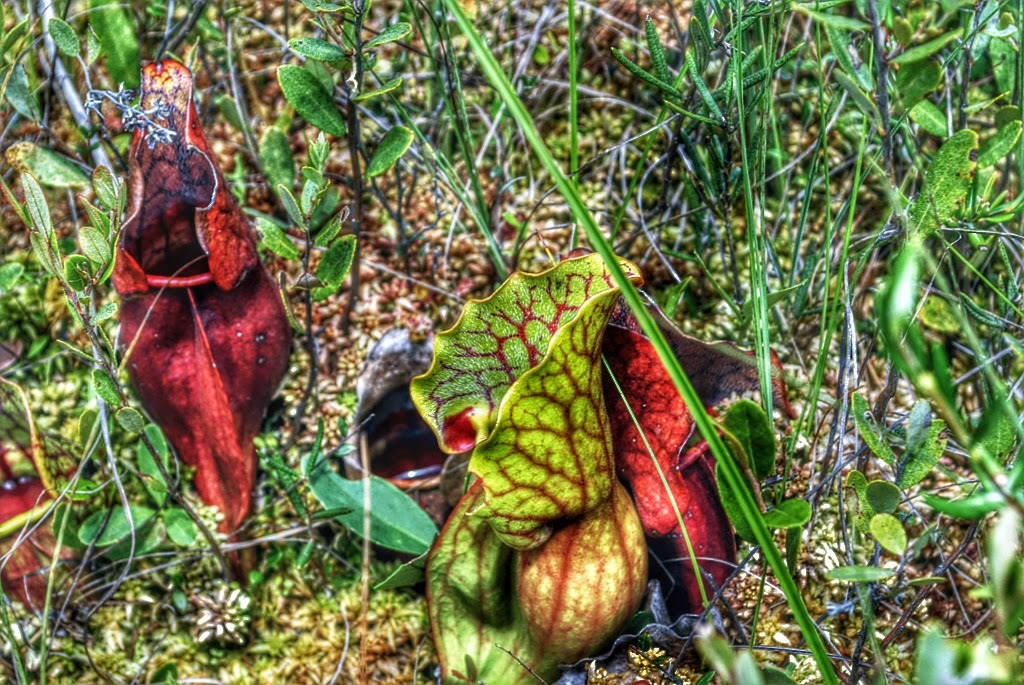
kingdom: Plantae
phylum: Tracheophyta
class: Magnoliopsida
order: Ericales
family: Sarraceniaceae
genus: Sarracenia
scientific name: Sarracenia purpurea
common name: Pitcherplant
